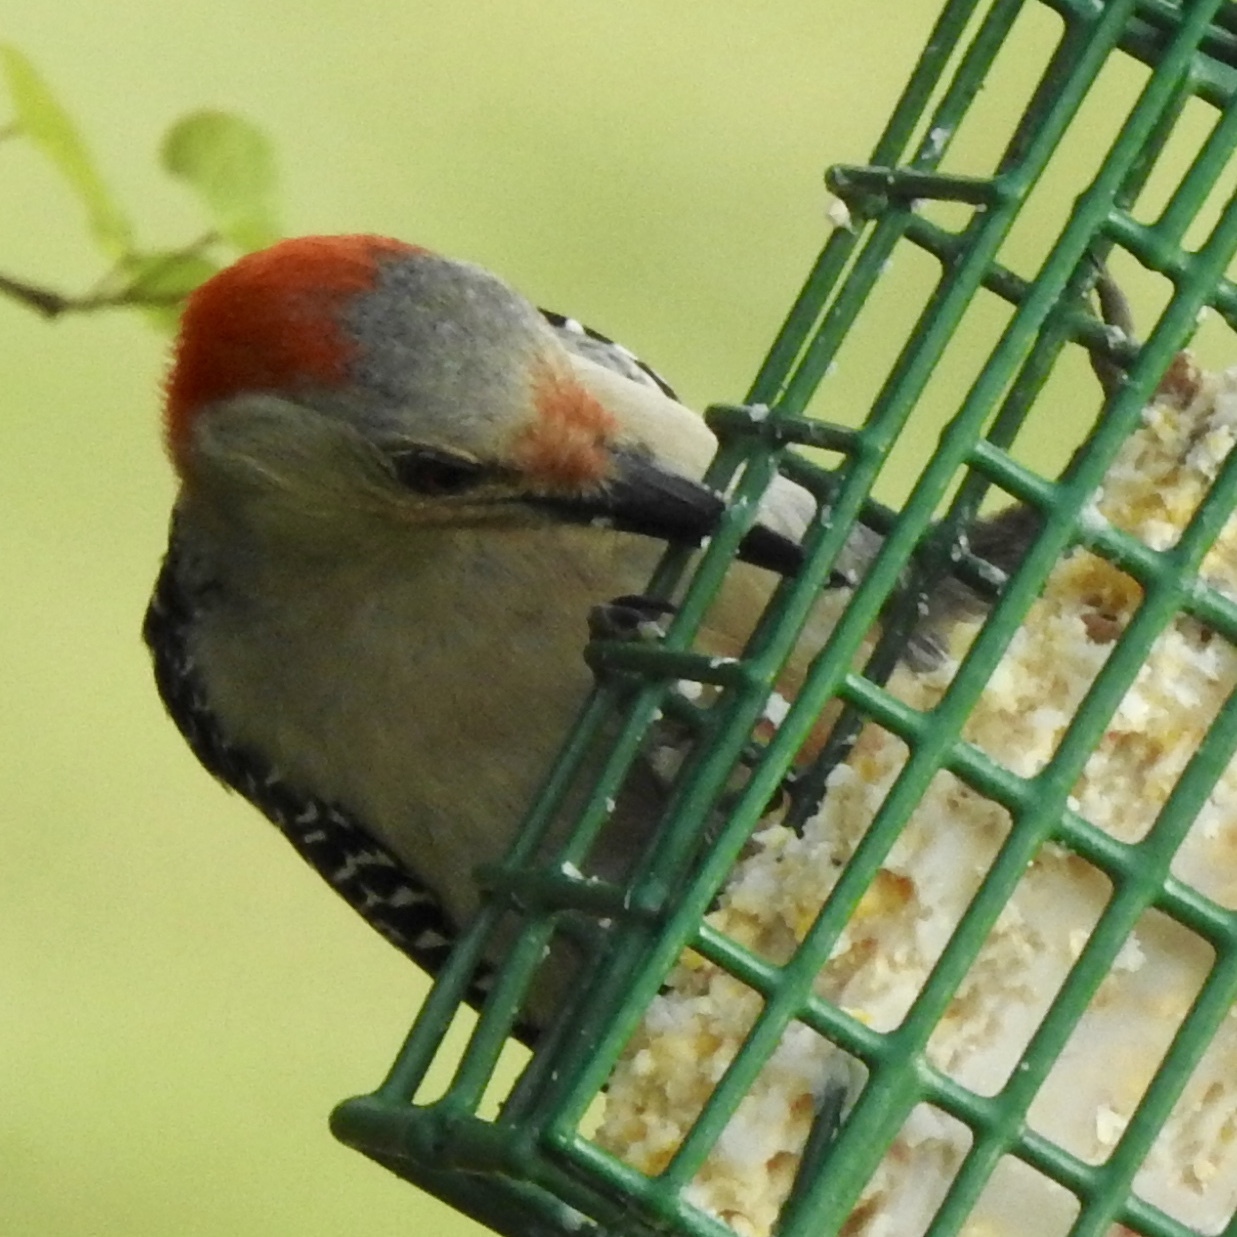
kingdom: Animalia
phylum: Chordata
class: Aves
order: Piciformes
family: Picidae
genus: Melanerpes
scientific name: Melanerpes carolinus
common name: Red-bellied woodpecker
